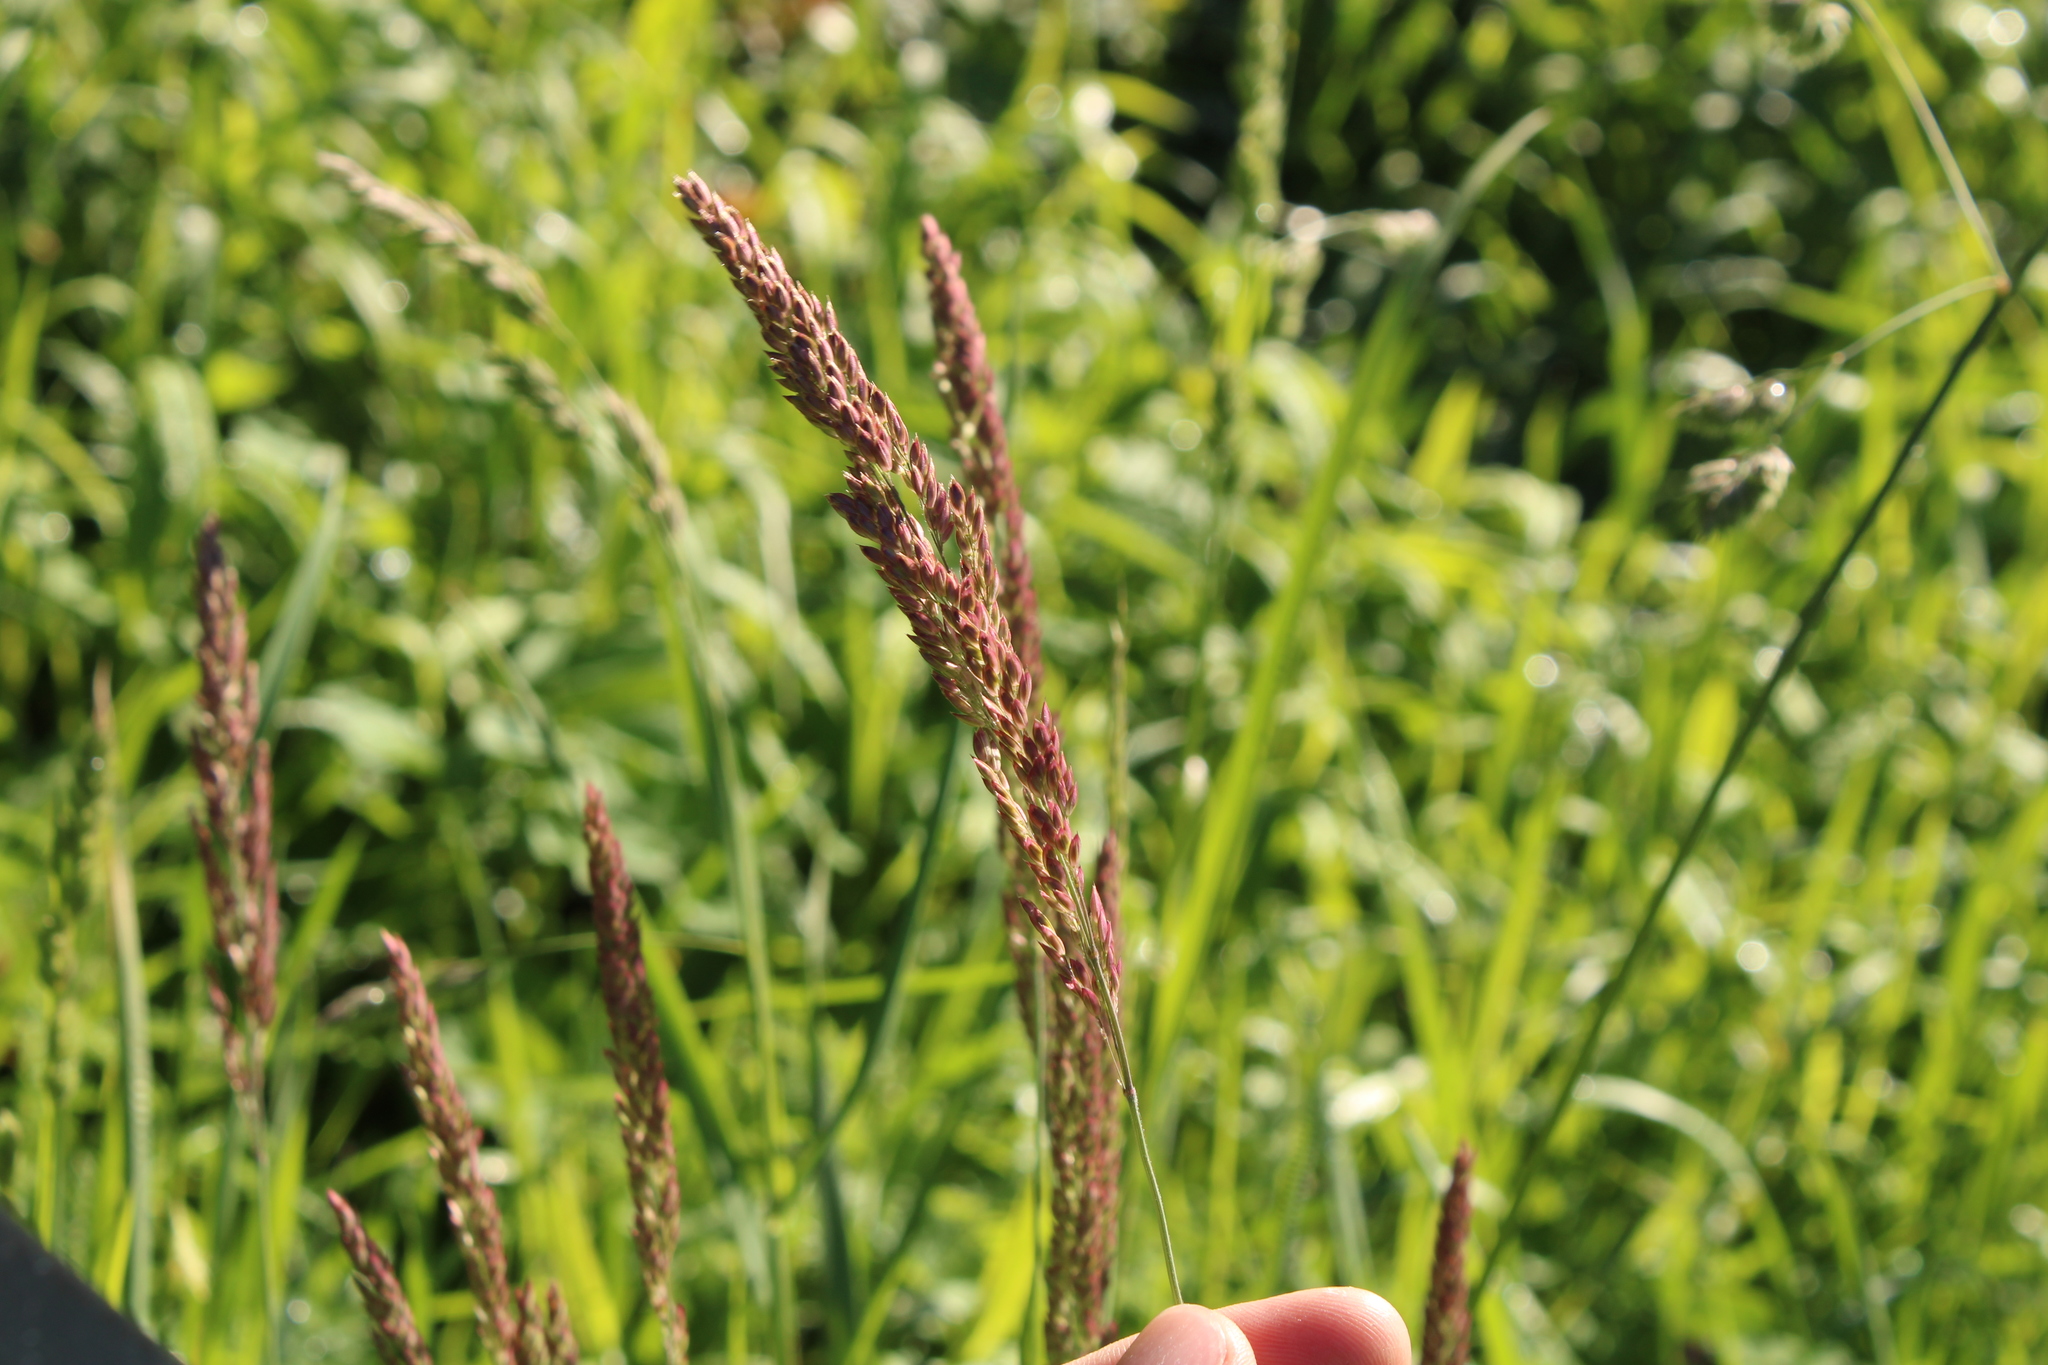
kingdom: Plantae
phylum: Tracheophyta
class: Liliopsida
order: Poales
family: Poaceae
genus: Holcus
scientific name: Holcus lanatus
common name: Yorkshire-fog
